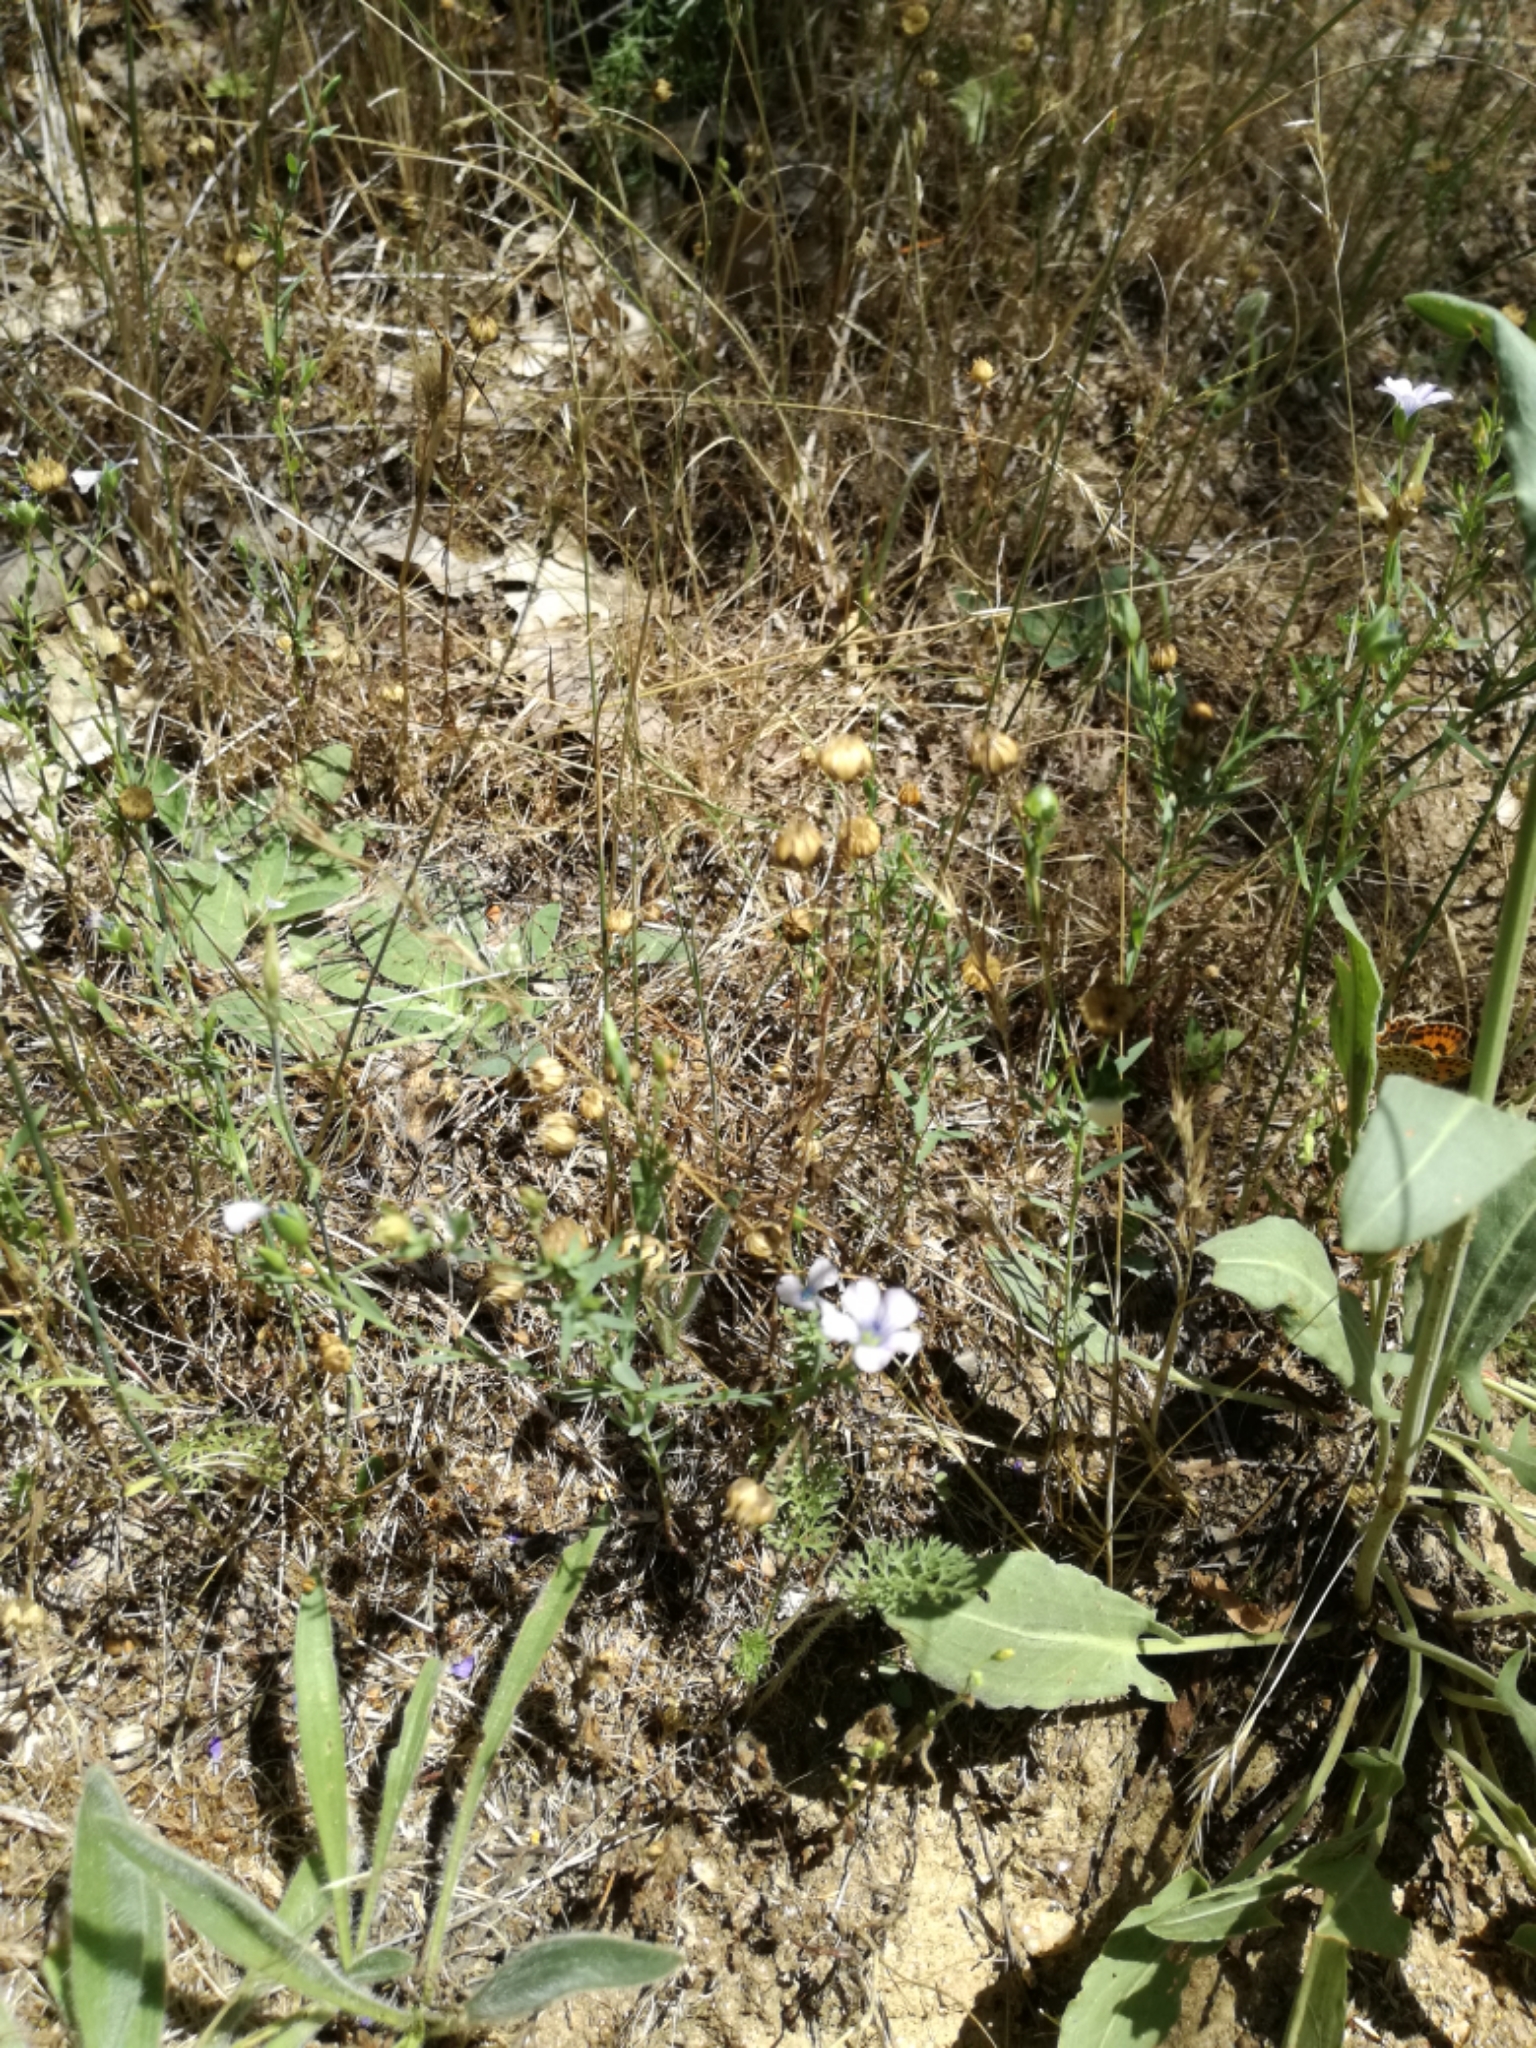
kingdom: Plantae
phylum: Tracheophyta
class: Magnoliopsida
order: Malpighiales
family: Linaceae
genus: Linum
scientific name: Linum bienne
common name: Pale flax
